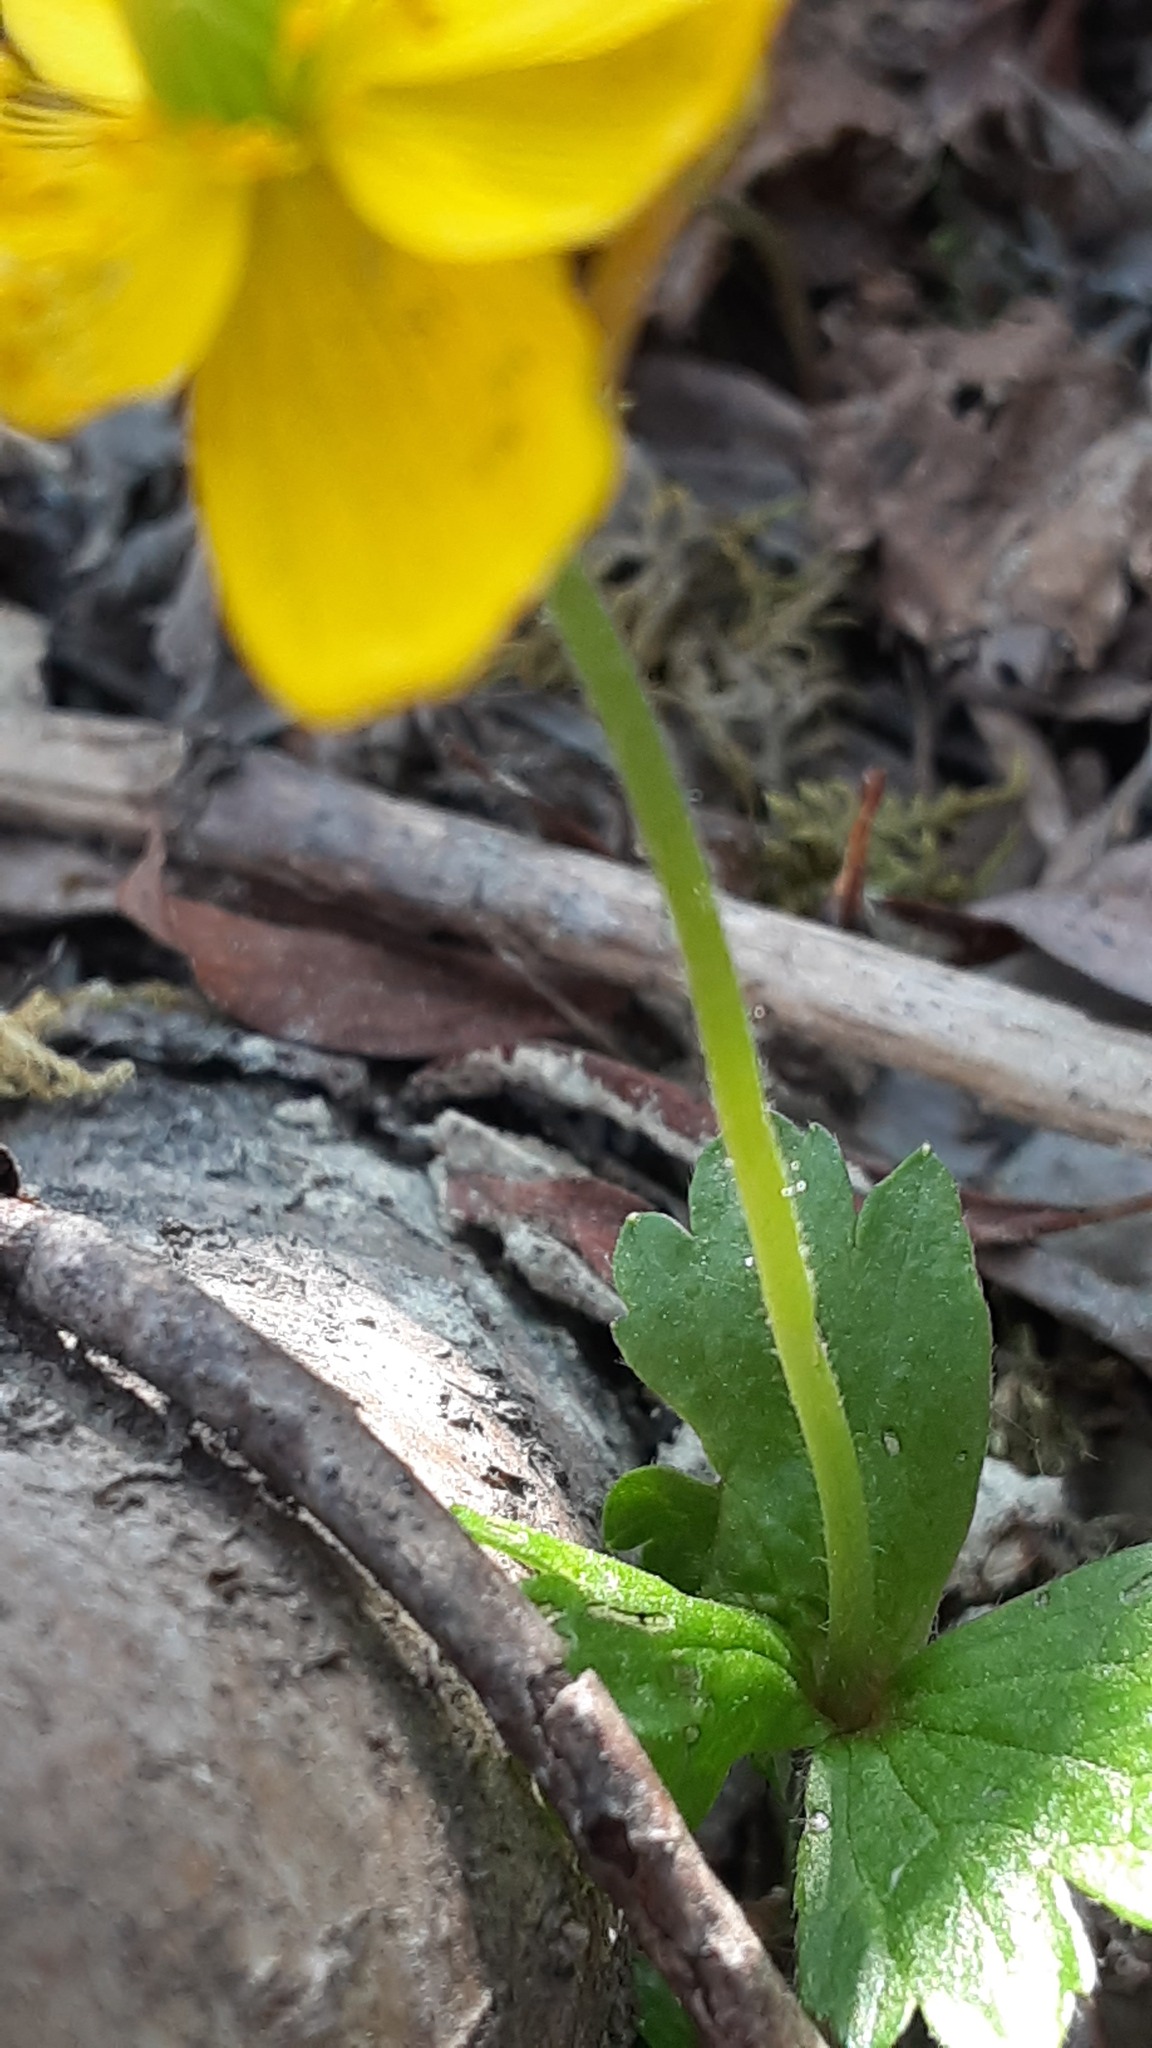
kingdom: Plantae
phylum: Tracheophyta
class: Magnoliopsida
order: Ranunculales
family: Ranunculaceae
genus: Anemonastrum
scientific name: Anemonastrum richardsonii
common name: Richardson's anemone
